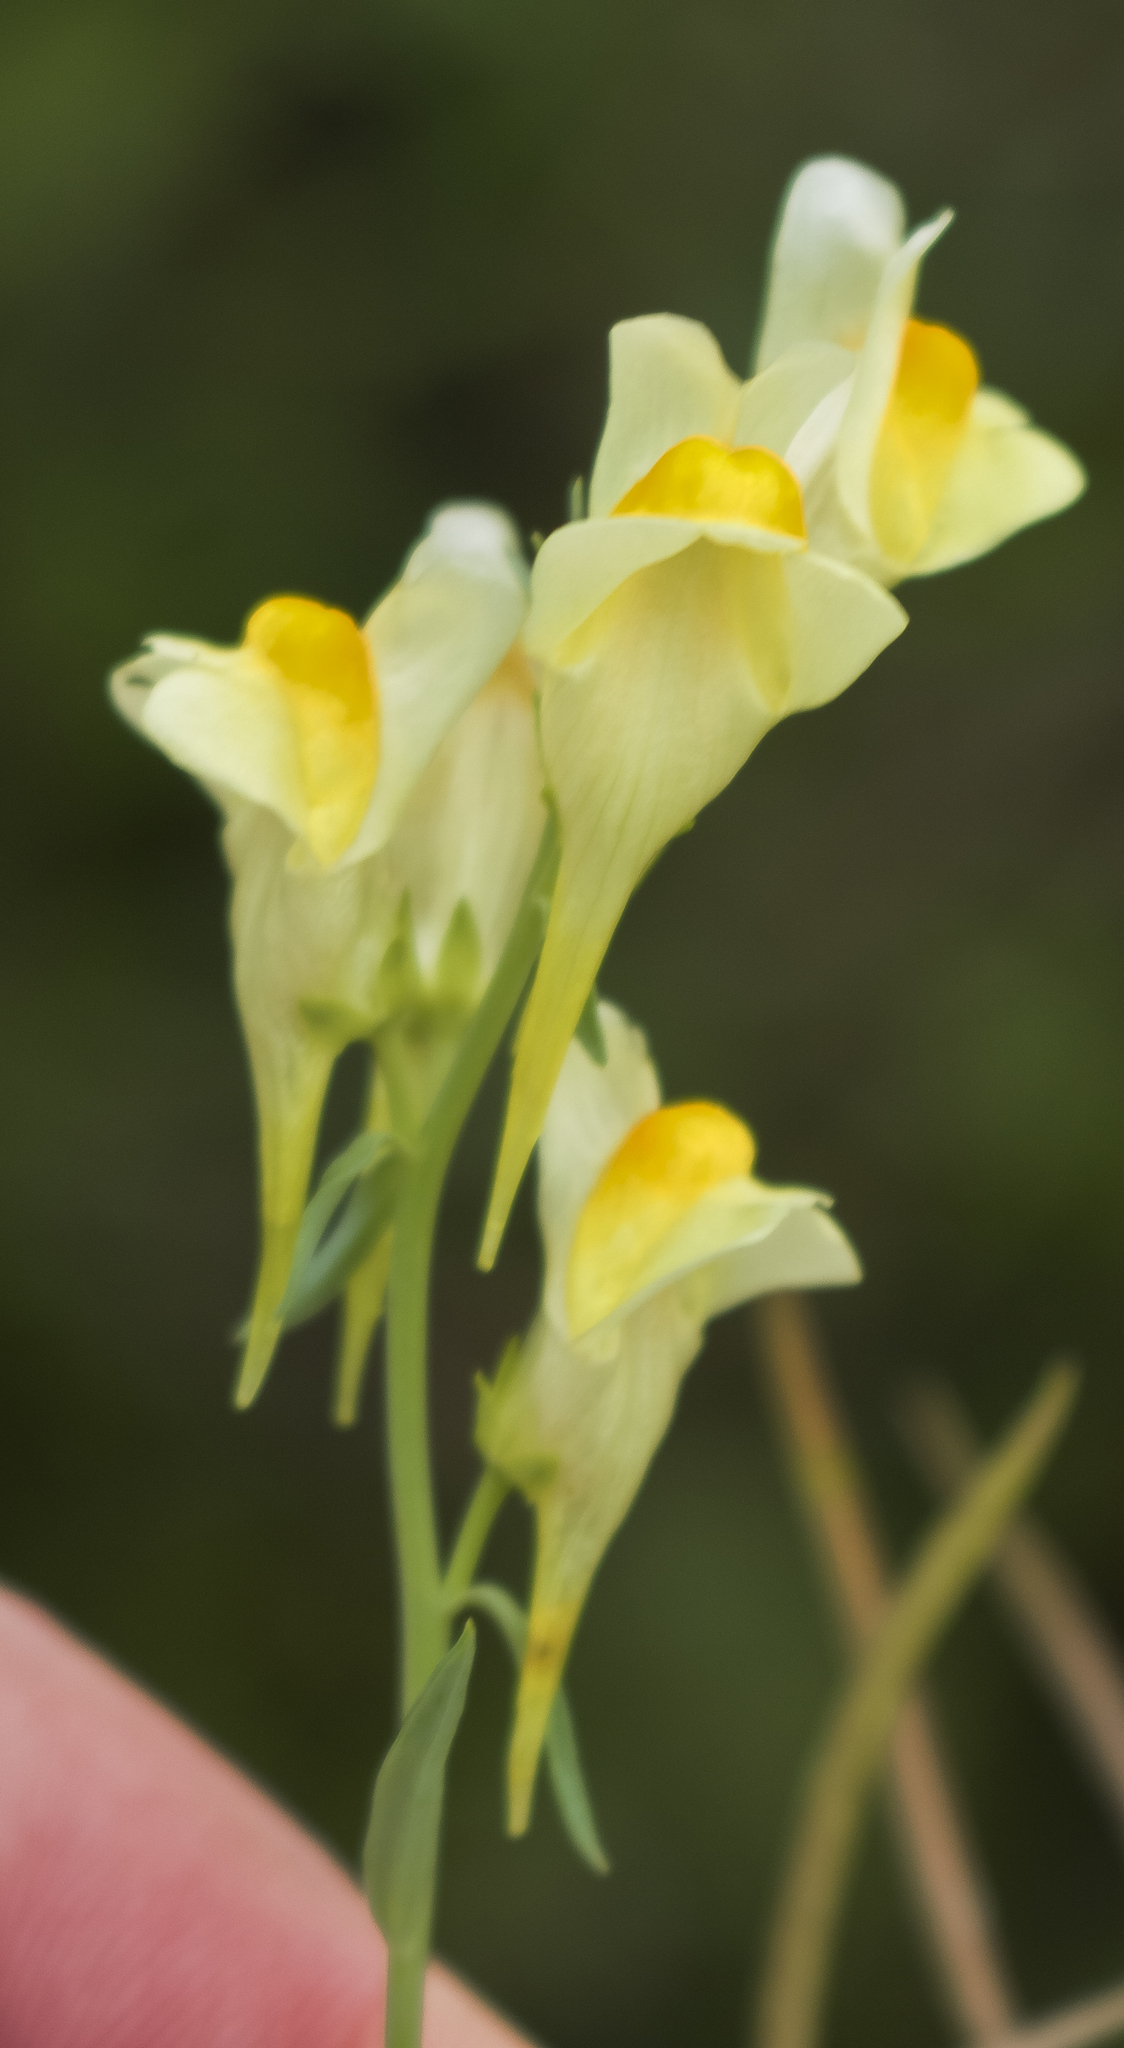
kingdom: Plantae
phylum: Tracheophyta
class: Magnoliopsida
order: Lamiales
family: Plantaginaceae
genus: Linaria
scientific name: Linaria vulgaris
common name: Butter and eggs
